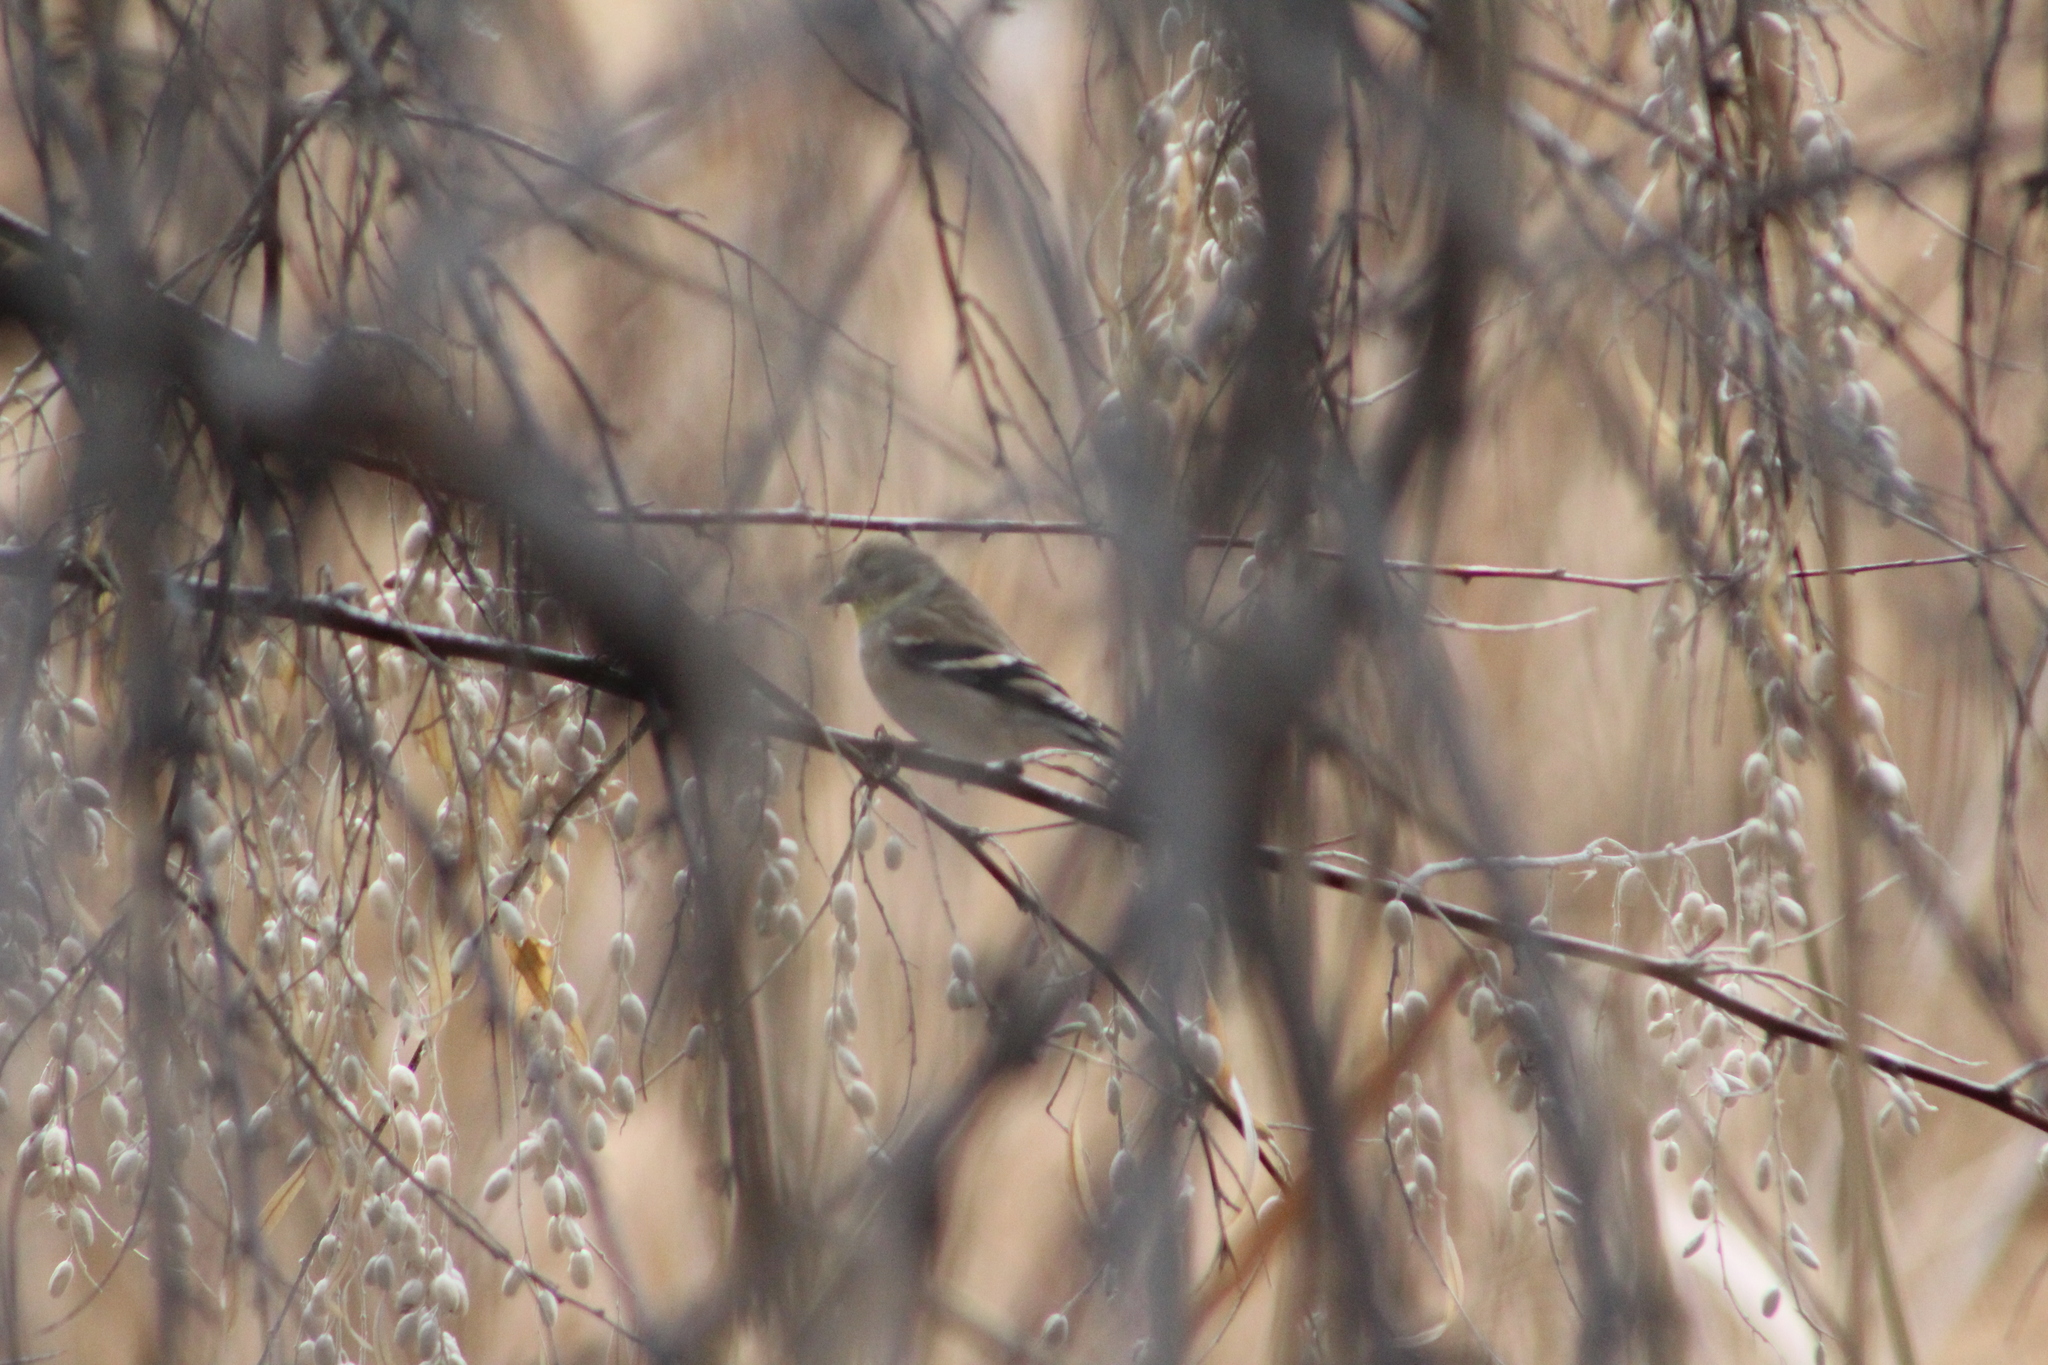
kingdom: Animalia
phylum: Chordata
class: Aves
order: Passeriformes
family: Fringillidae
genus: Spinus
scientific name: Spinus tristis
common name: American goldfinch
